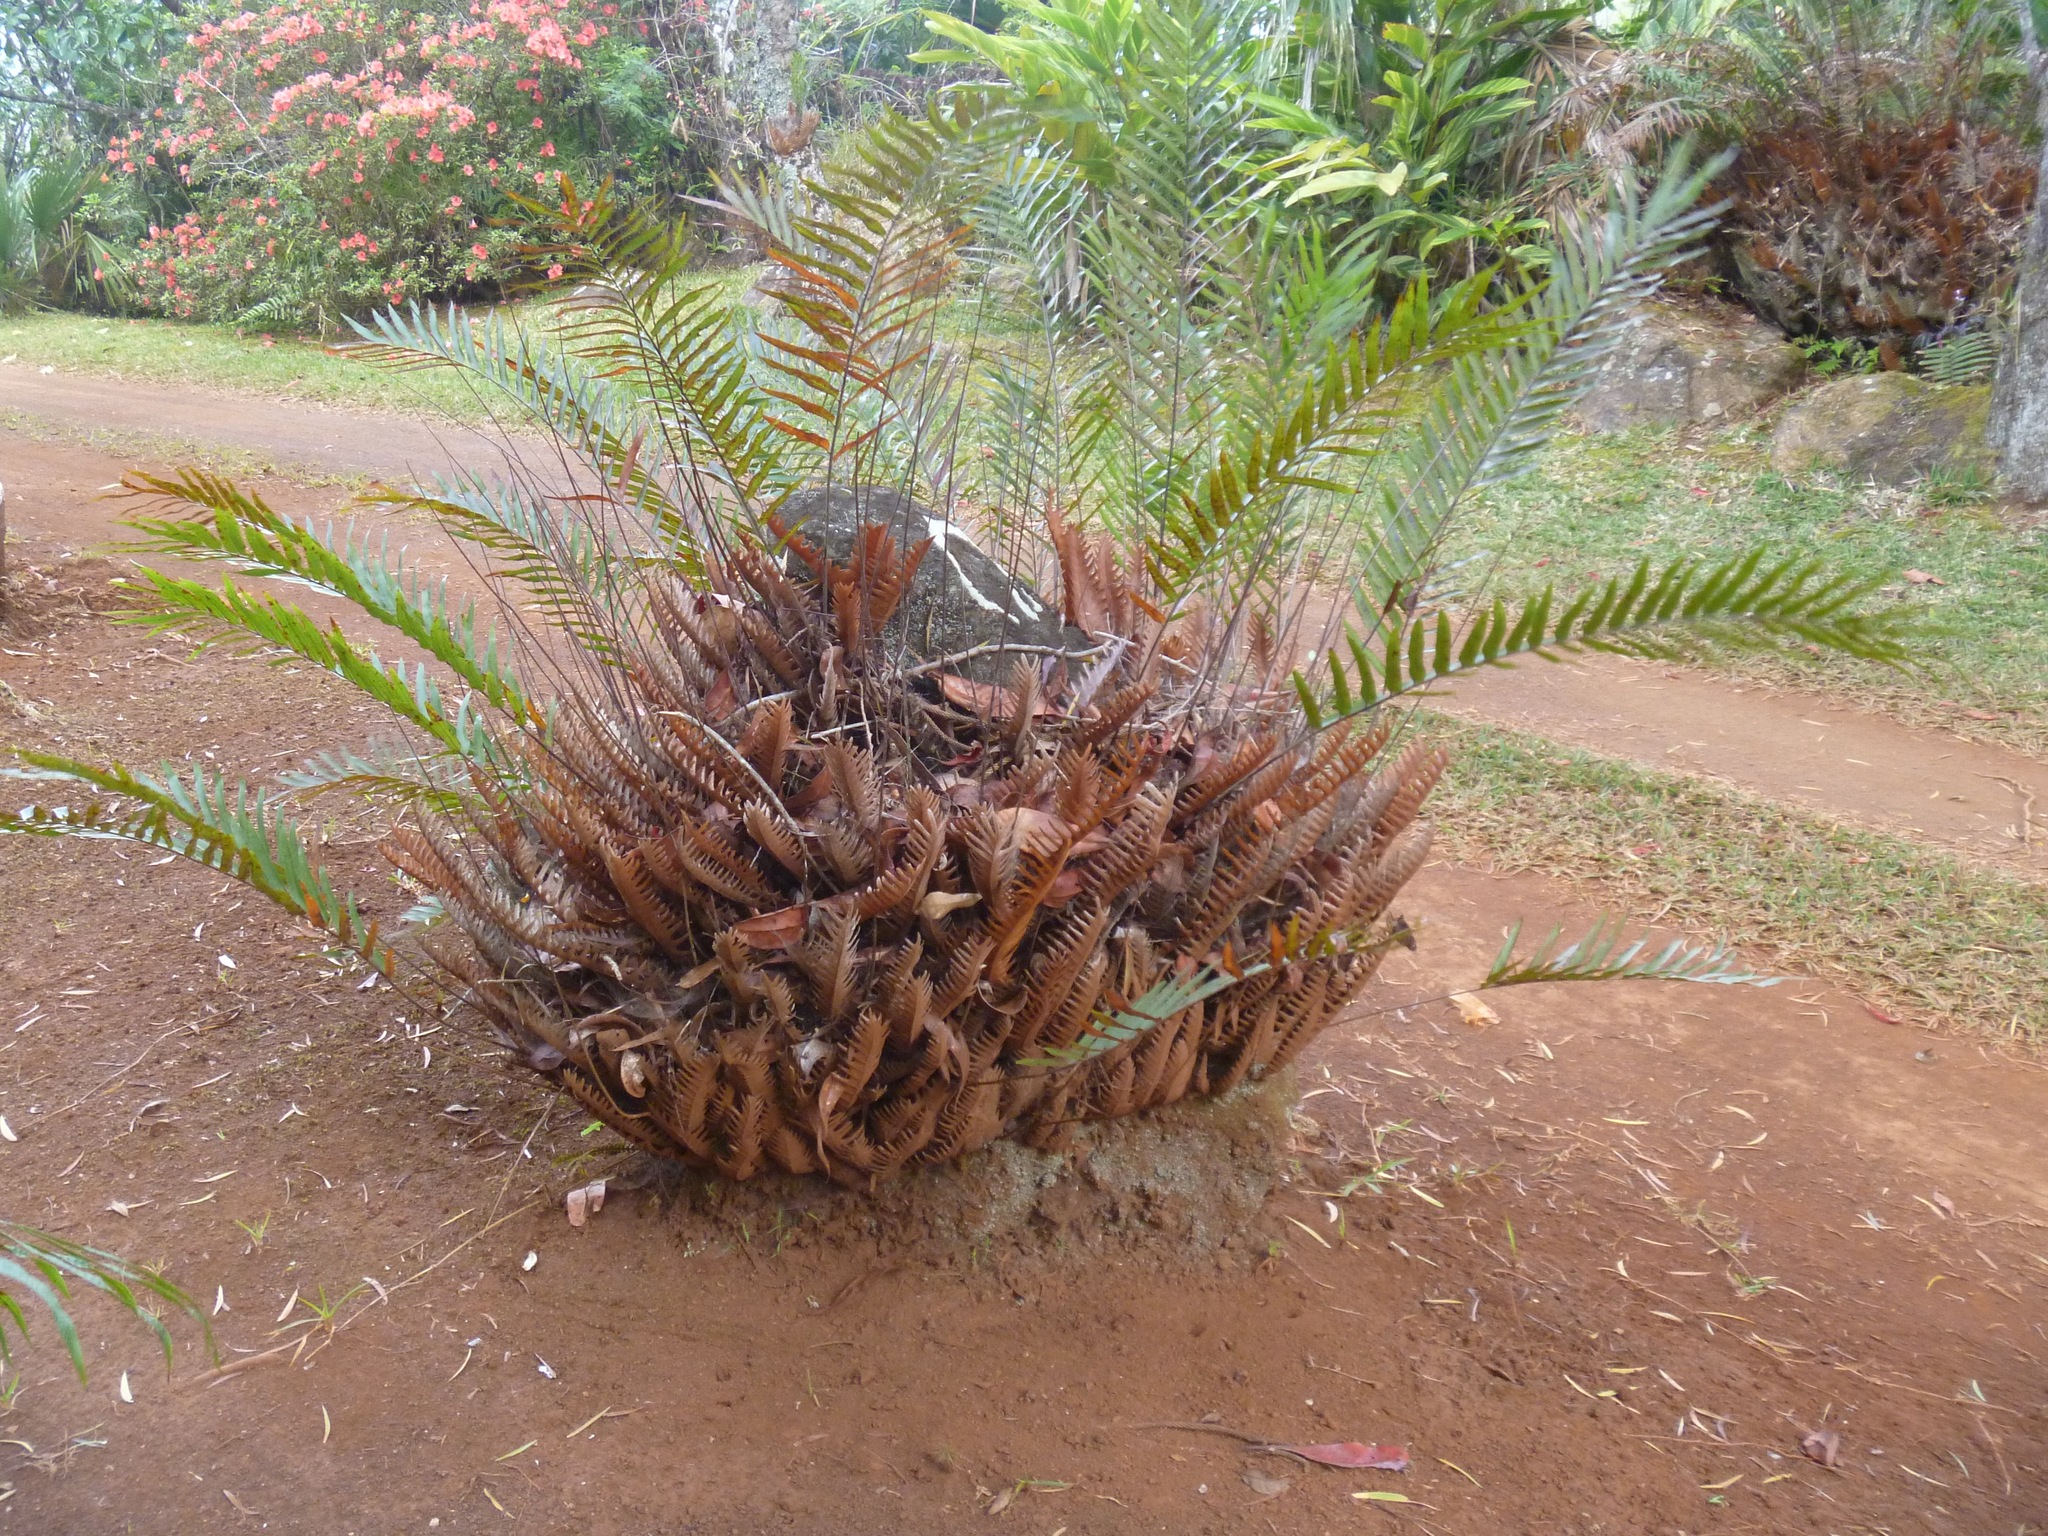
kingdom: Plantae
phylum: Tracheophyta
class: Polypodiopsida
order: Polypodiales
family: Polypodiaceae
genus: Drynaria
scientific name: Drynaria rigidula
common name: Basket fern
